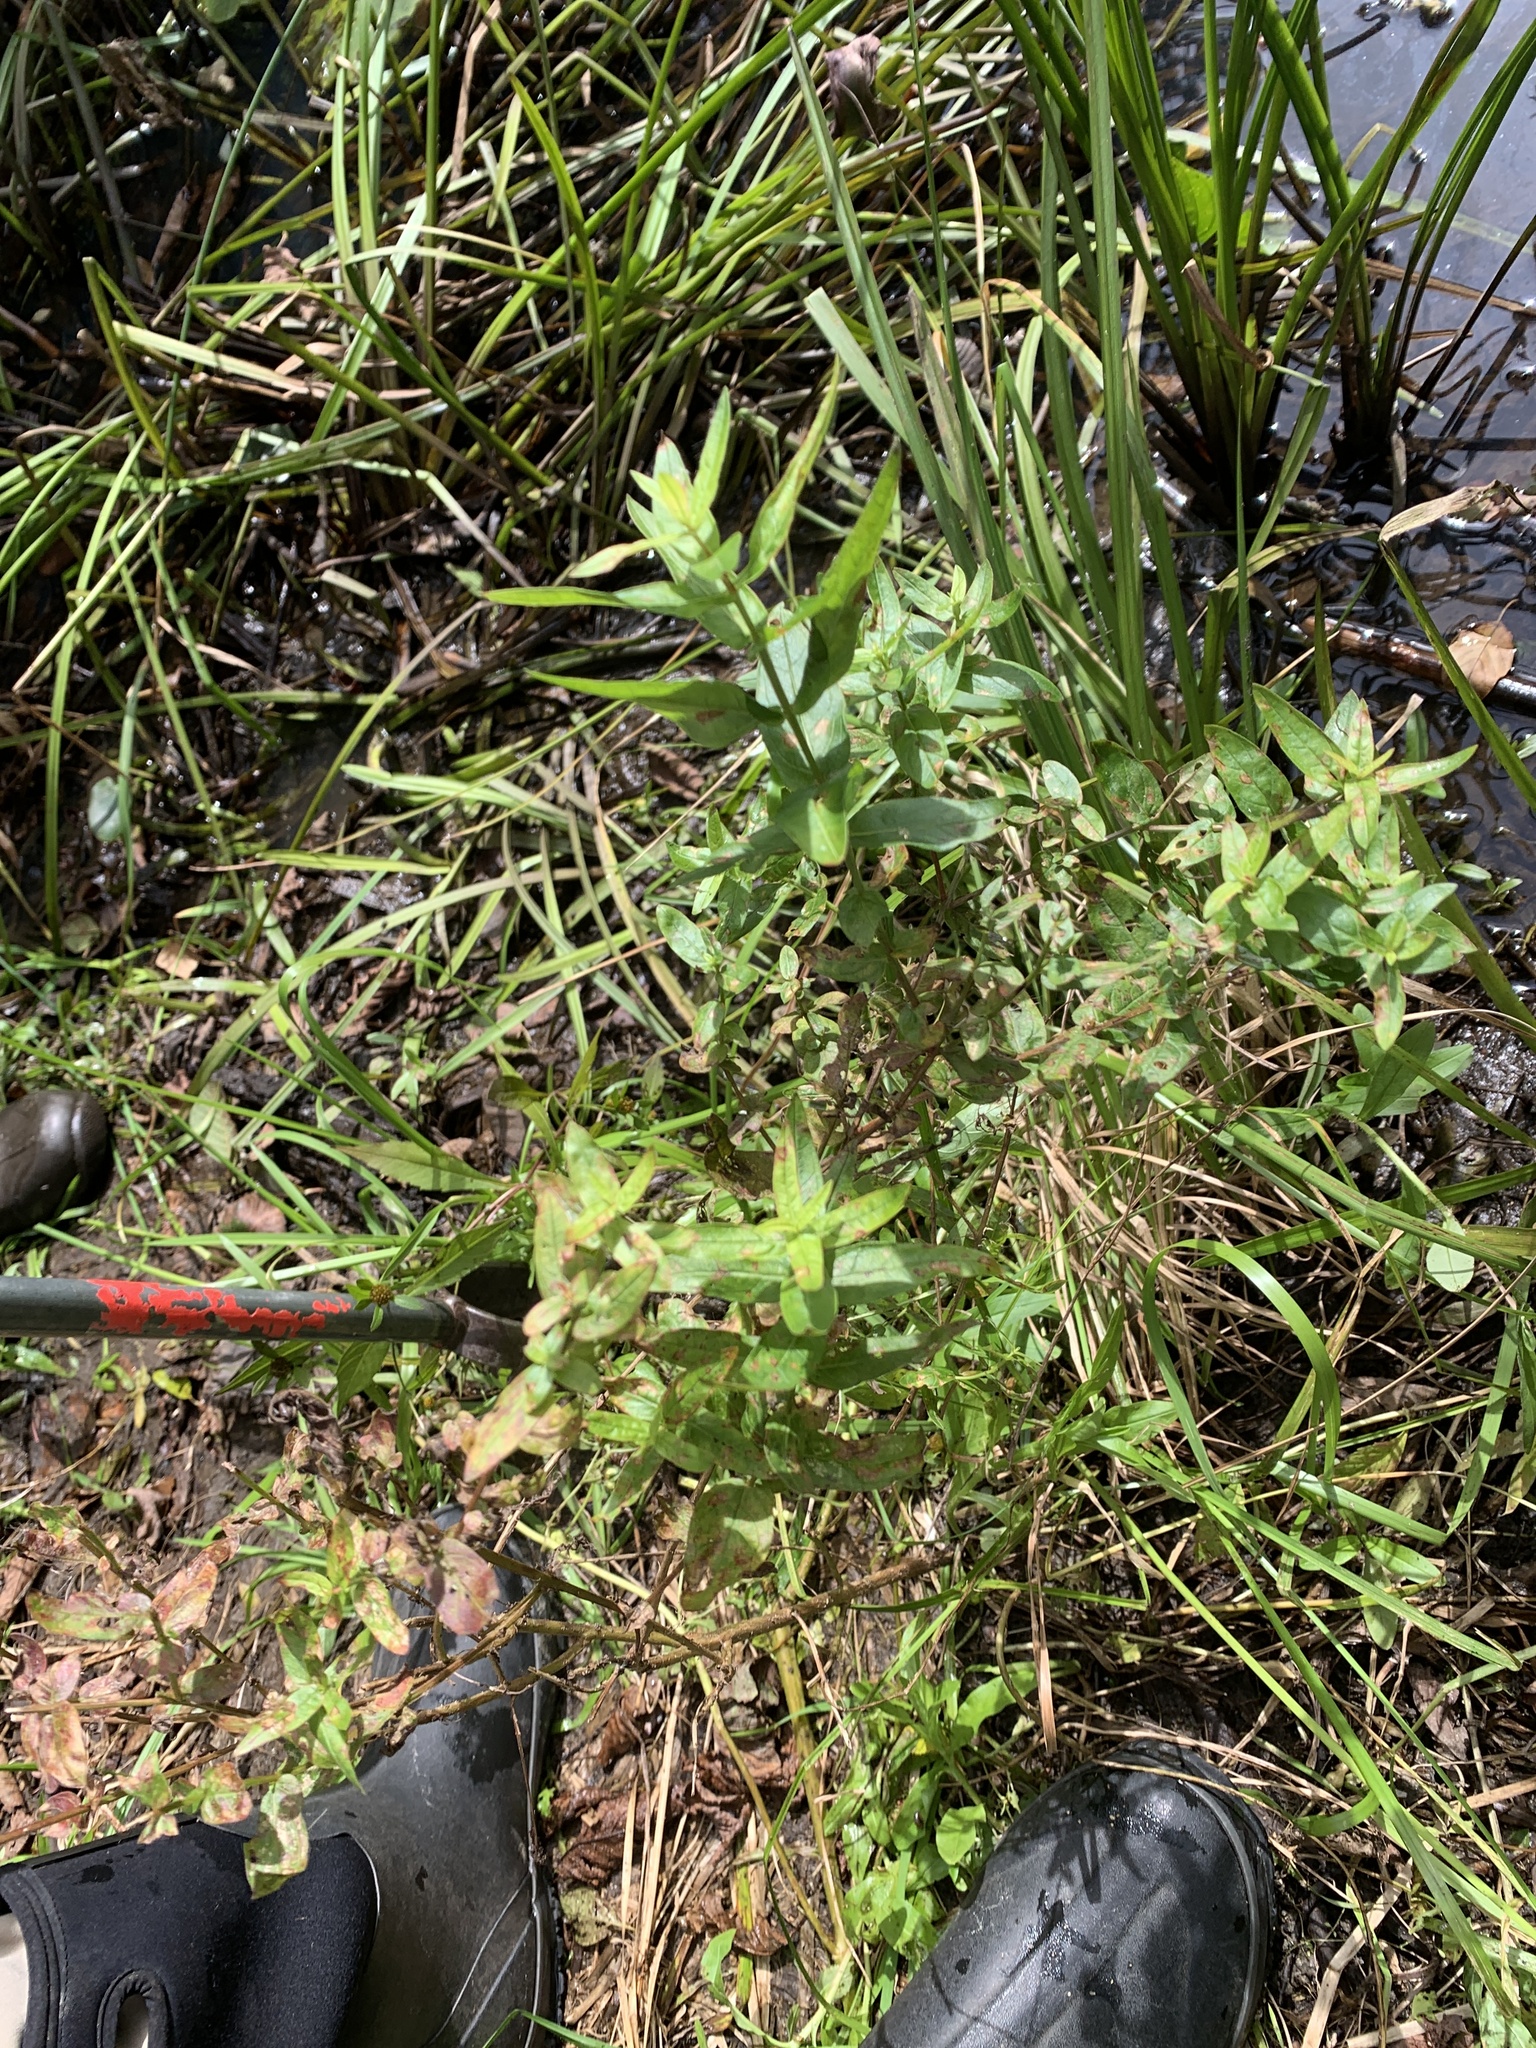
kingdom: Plantae
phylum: Tracheophyta
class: Magnoliopsida
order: Myrtales
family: Lythraceae
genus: Lythrum
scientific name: Lythrum salicaria
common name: Purple loosestrife
